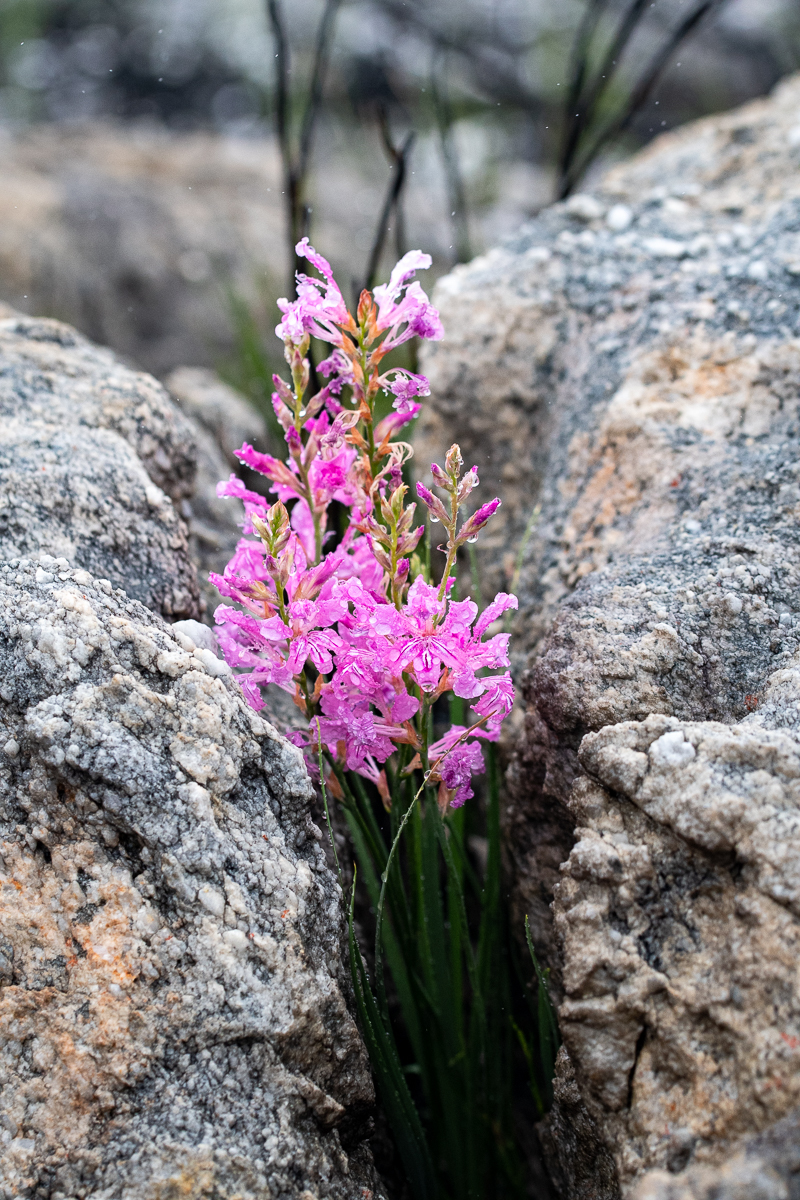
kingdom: Plantae
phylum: Tracheophyta
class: Liliopsida
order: Asparagales
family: Iridaceae
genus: Tritoniopsis
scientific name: Tritoniopsis lata
